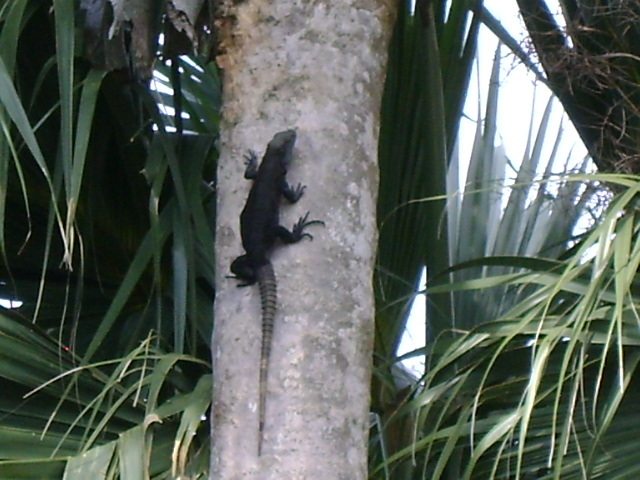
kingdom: Animalia
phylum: Chordata
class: Squamata
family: Iguanidae
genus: Ctenosaura
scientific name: Ctenosaura acanthura
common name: Northeastern spinytail iguana
